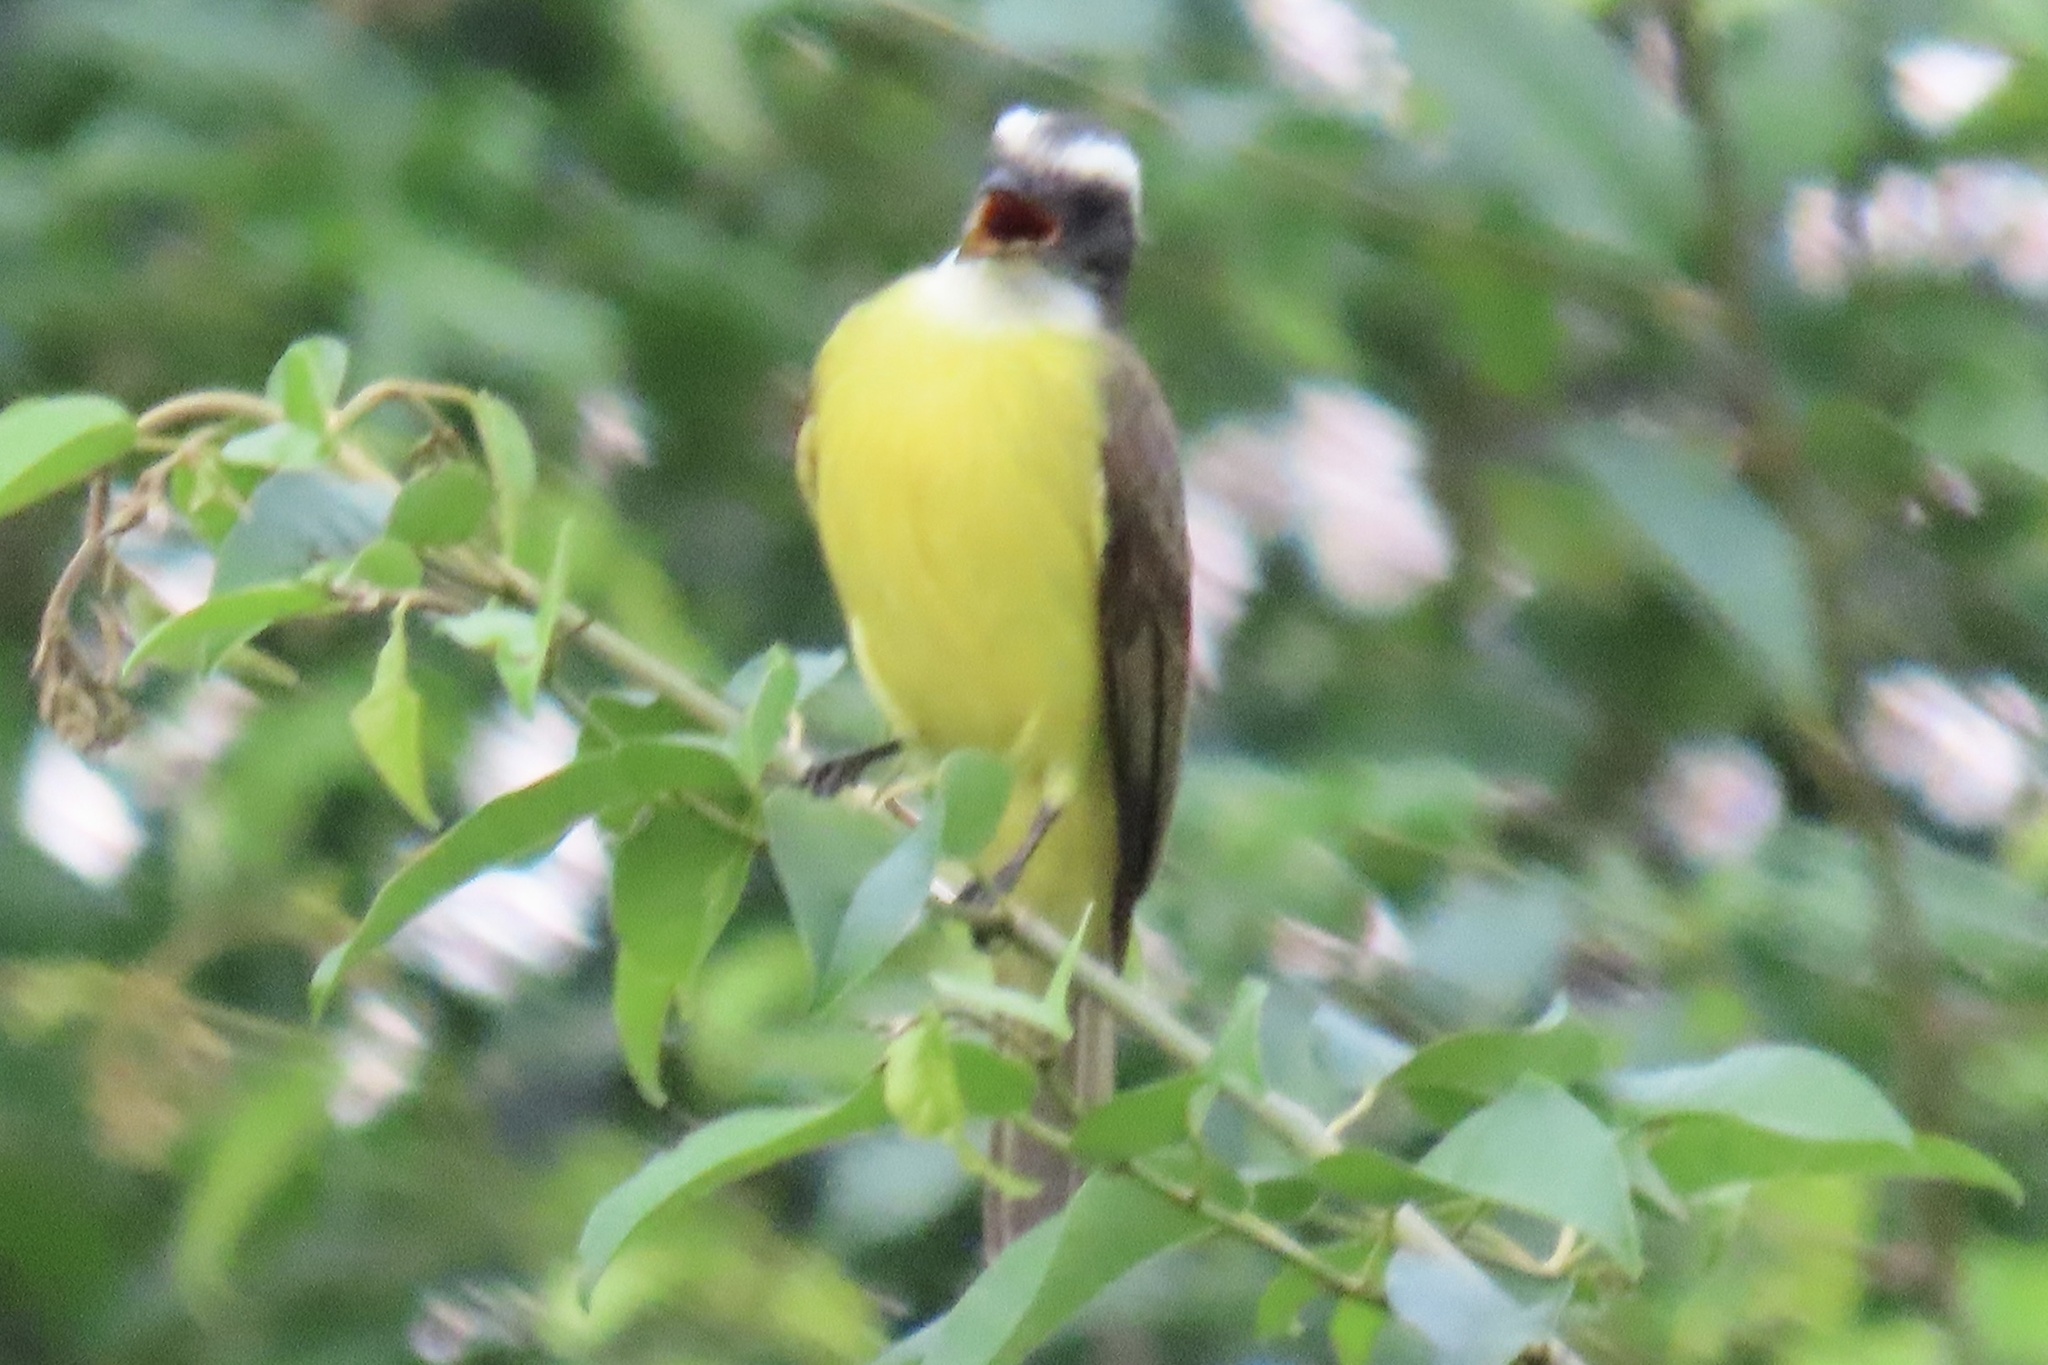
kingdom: Animalia
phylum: Chordata
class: Aves
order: Passeriformes
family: Tyrannidae
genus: Myiozetetes
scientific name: Myiozetetes similis
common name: Social flycatcher
